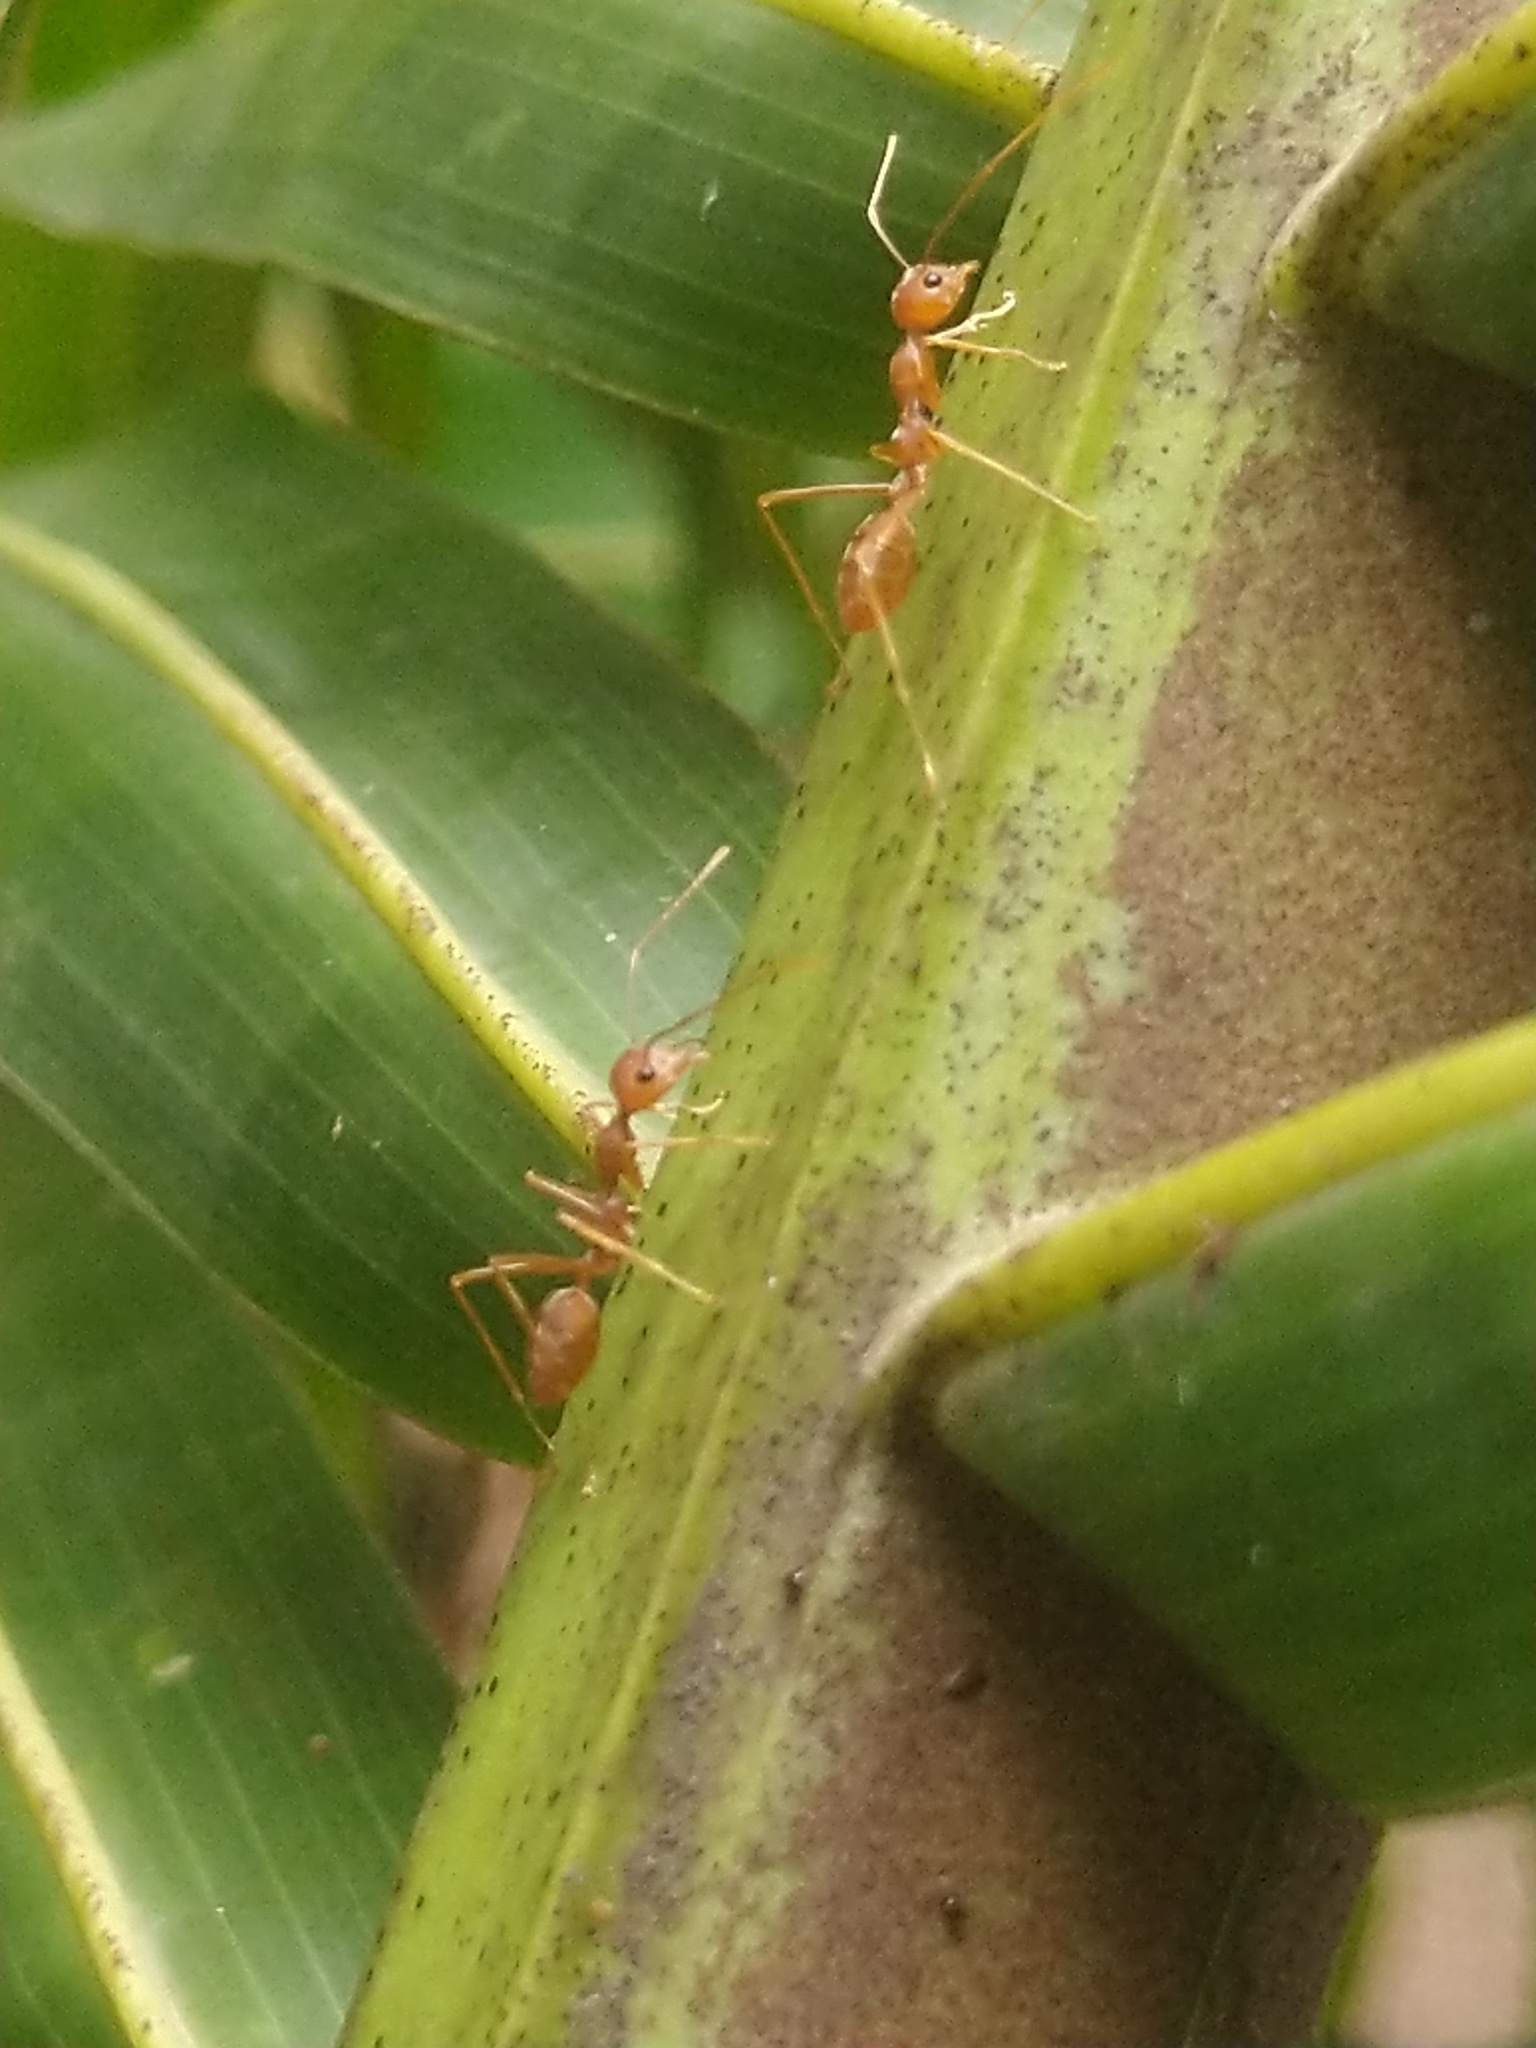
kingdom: Animalia
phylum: Arthropoda
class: Insecta
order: Hymenoptera
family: Formicidae
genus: Oecophylla
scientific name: Oecophylla smaragdina
